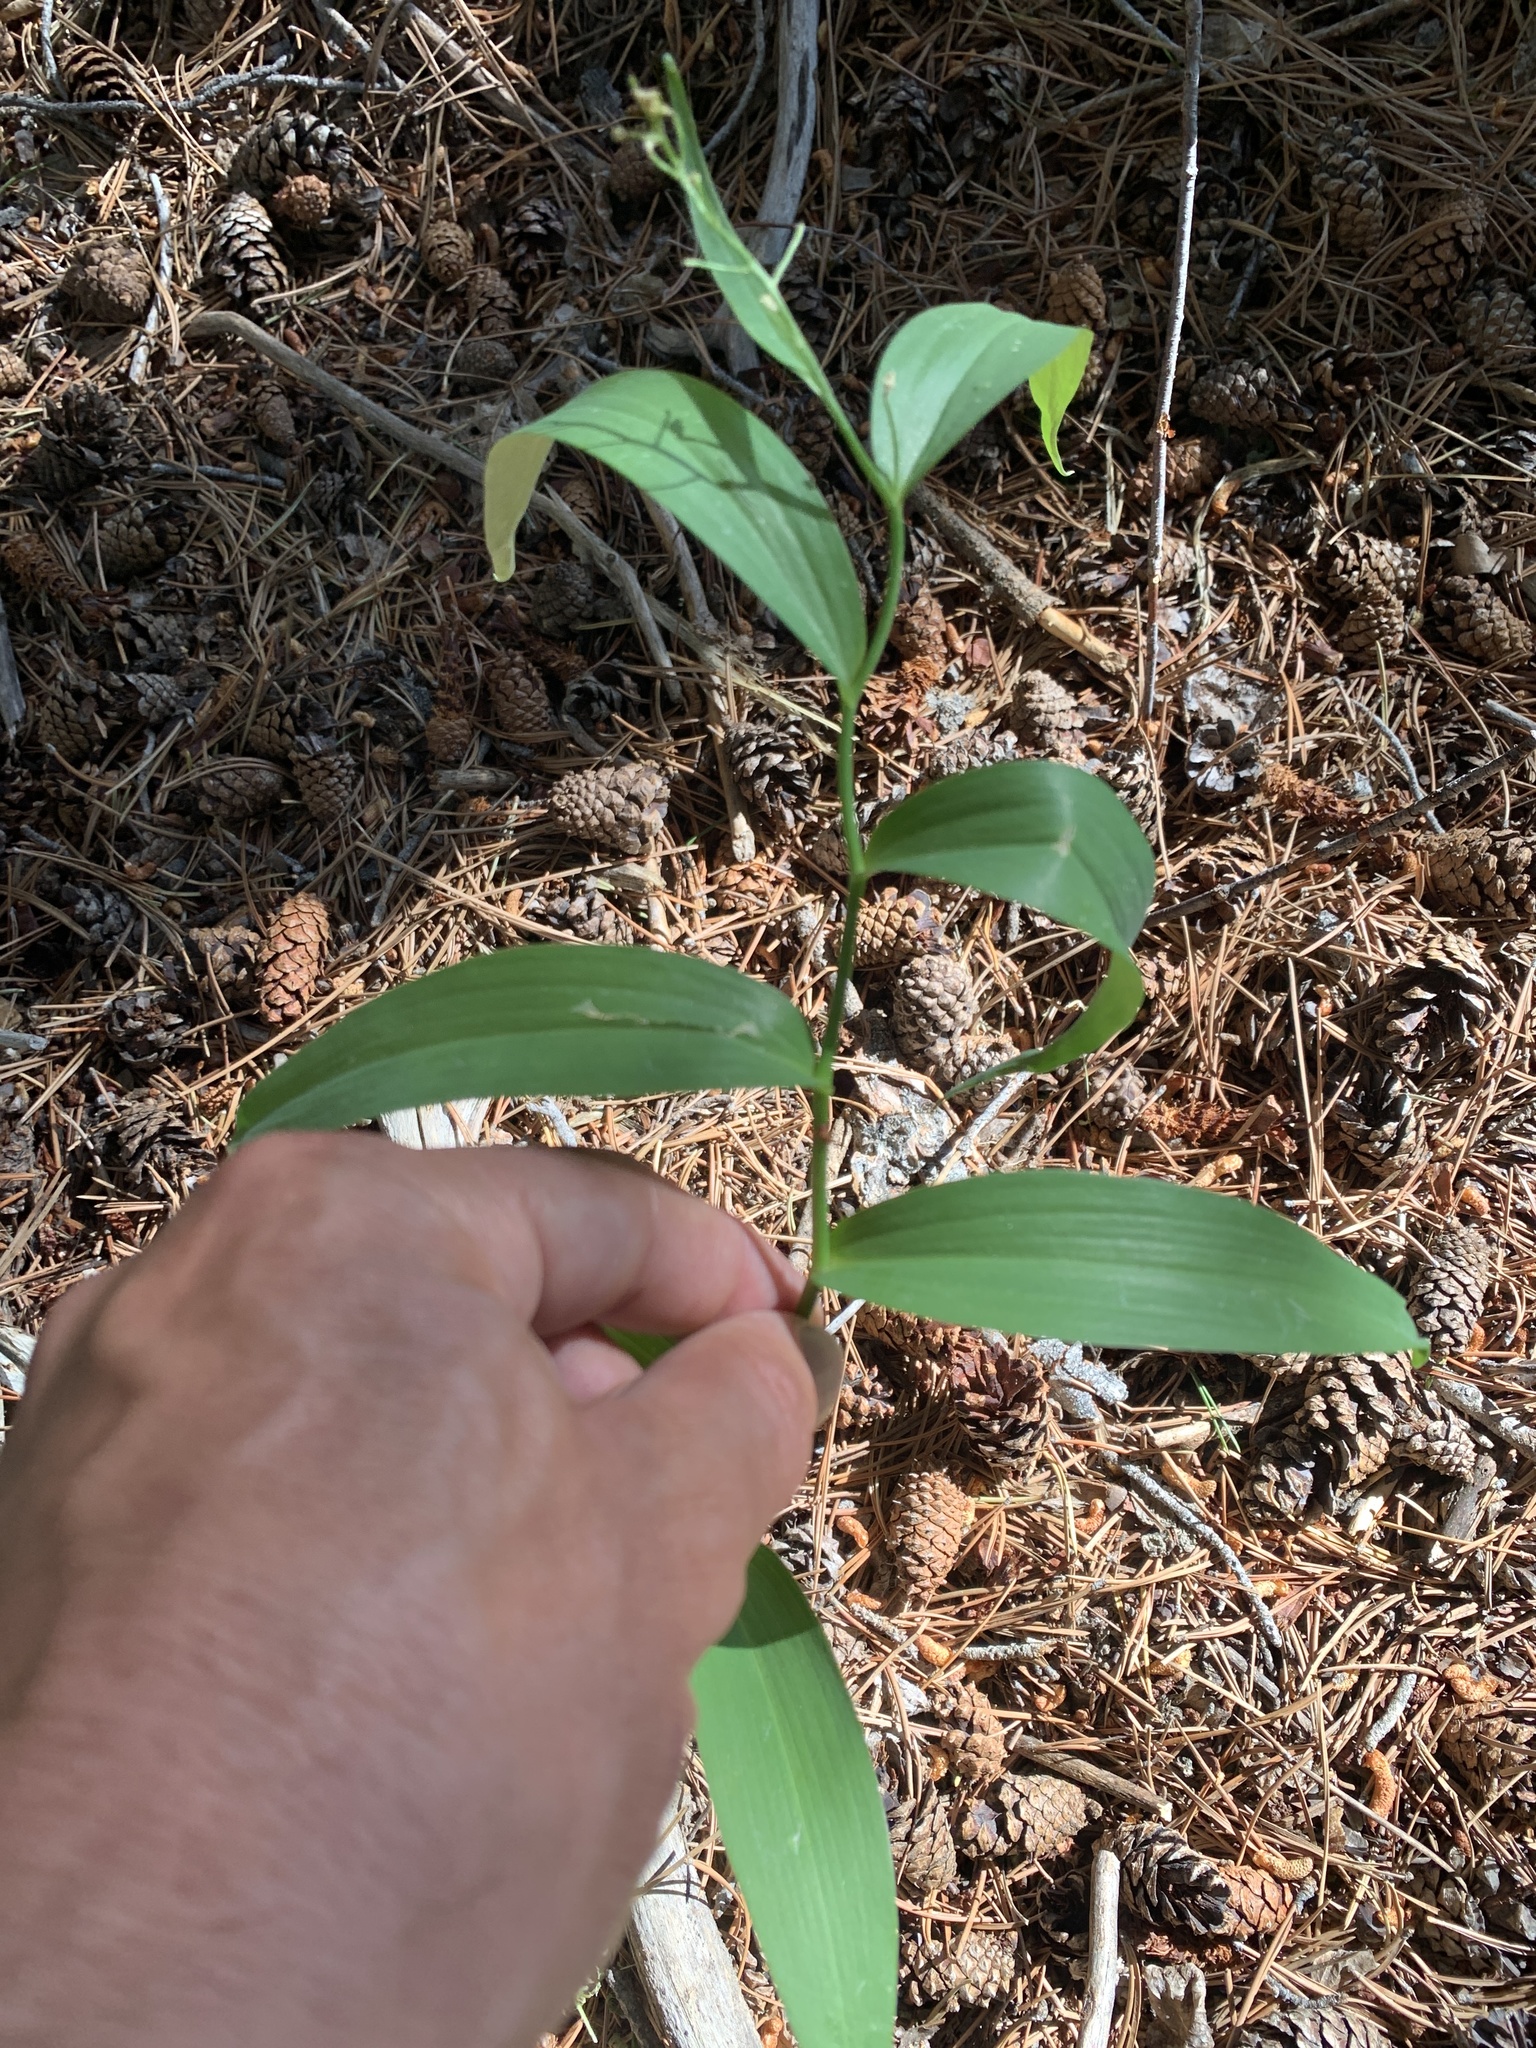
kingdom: Plantae
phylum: Tracheophyta
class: Liliopsida
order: Asparagales
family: Asparagaceae
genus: Maianthemum
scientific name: Maianthemum stellatum
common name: Little false solomon's seal
